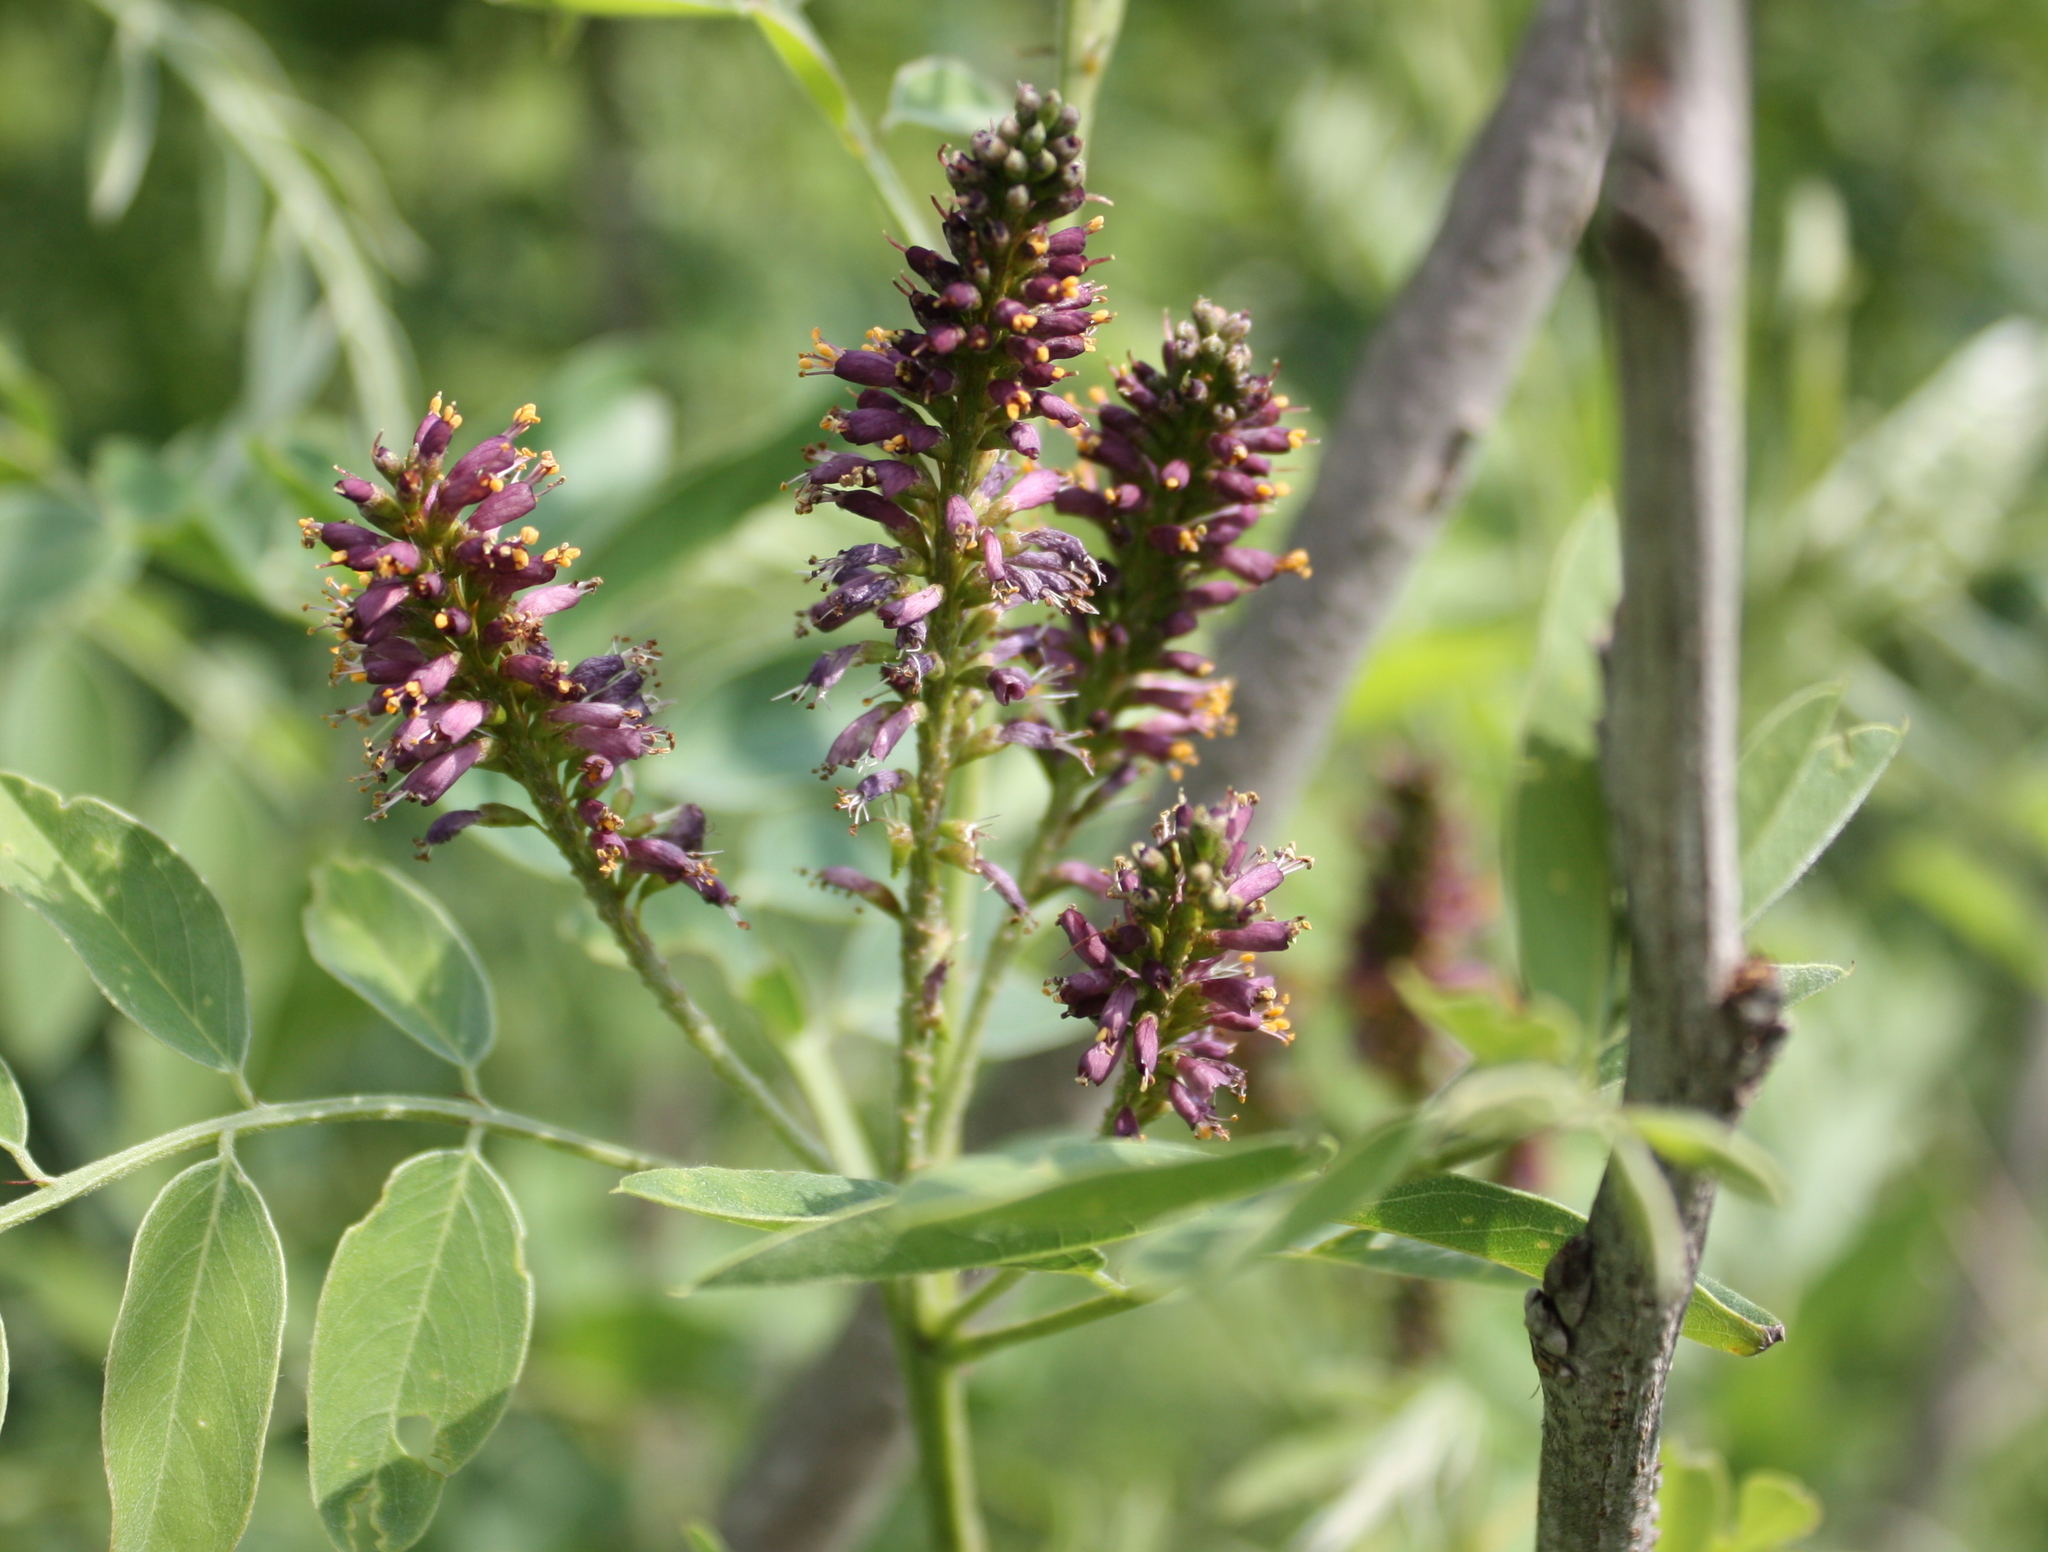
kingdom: Plantae
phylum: Tracheophyta
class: Magnoliopsida
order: Fabales
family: Fabaceae
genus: Amorpha
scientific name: Amorpha fruticosa
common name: False indigo
